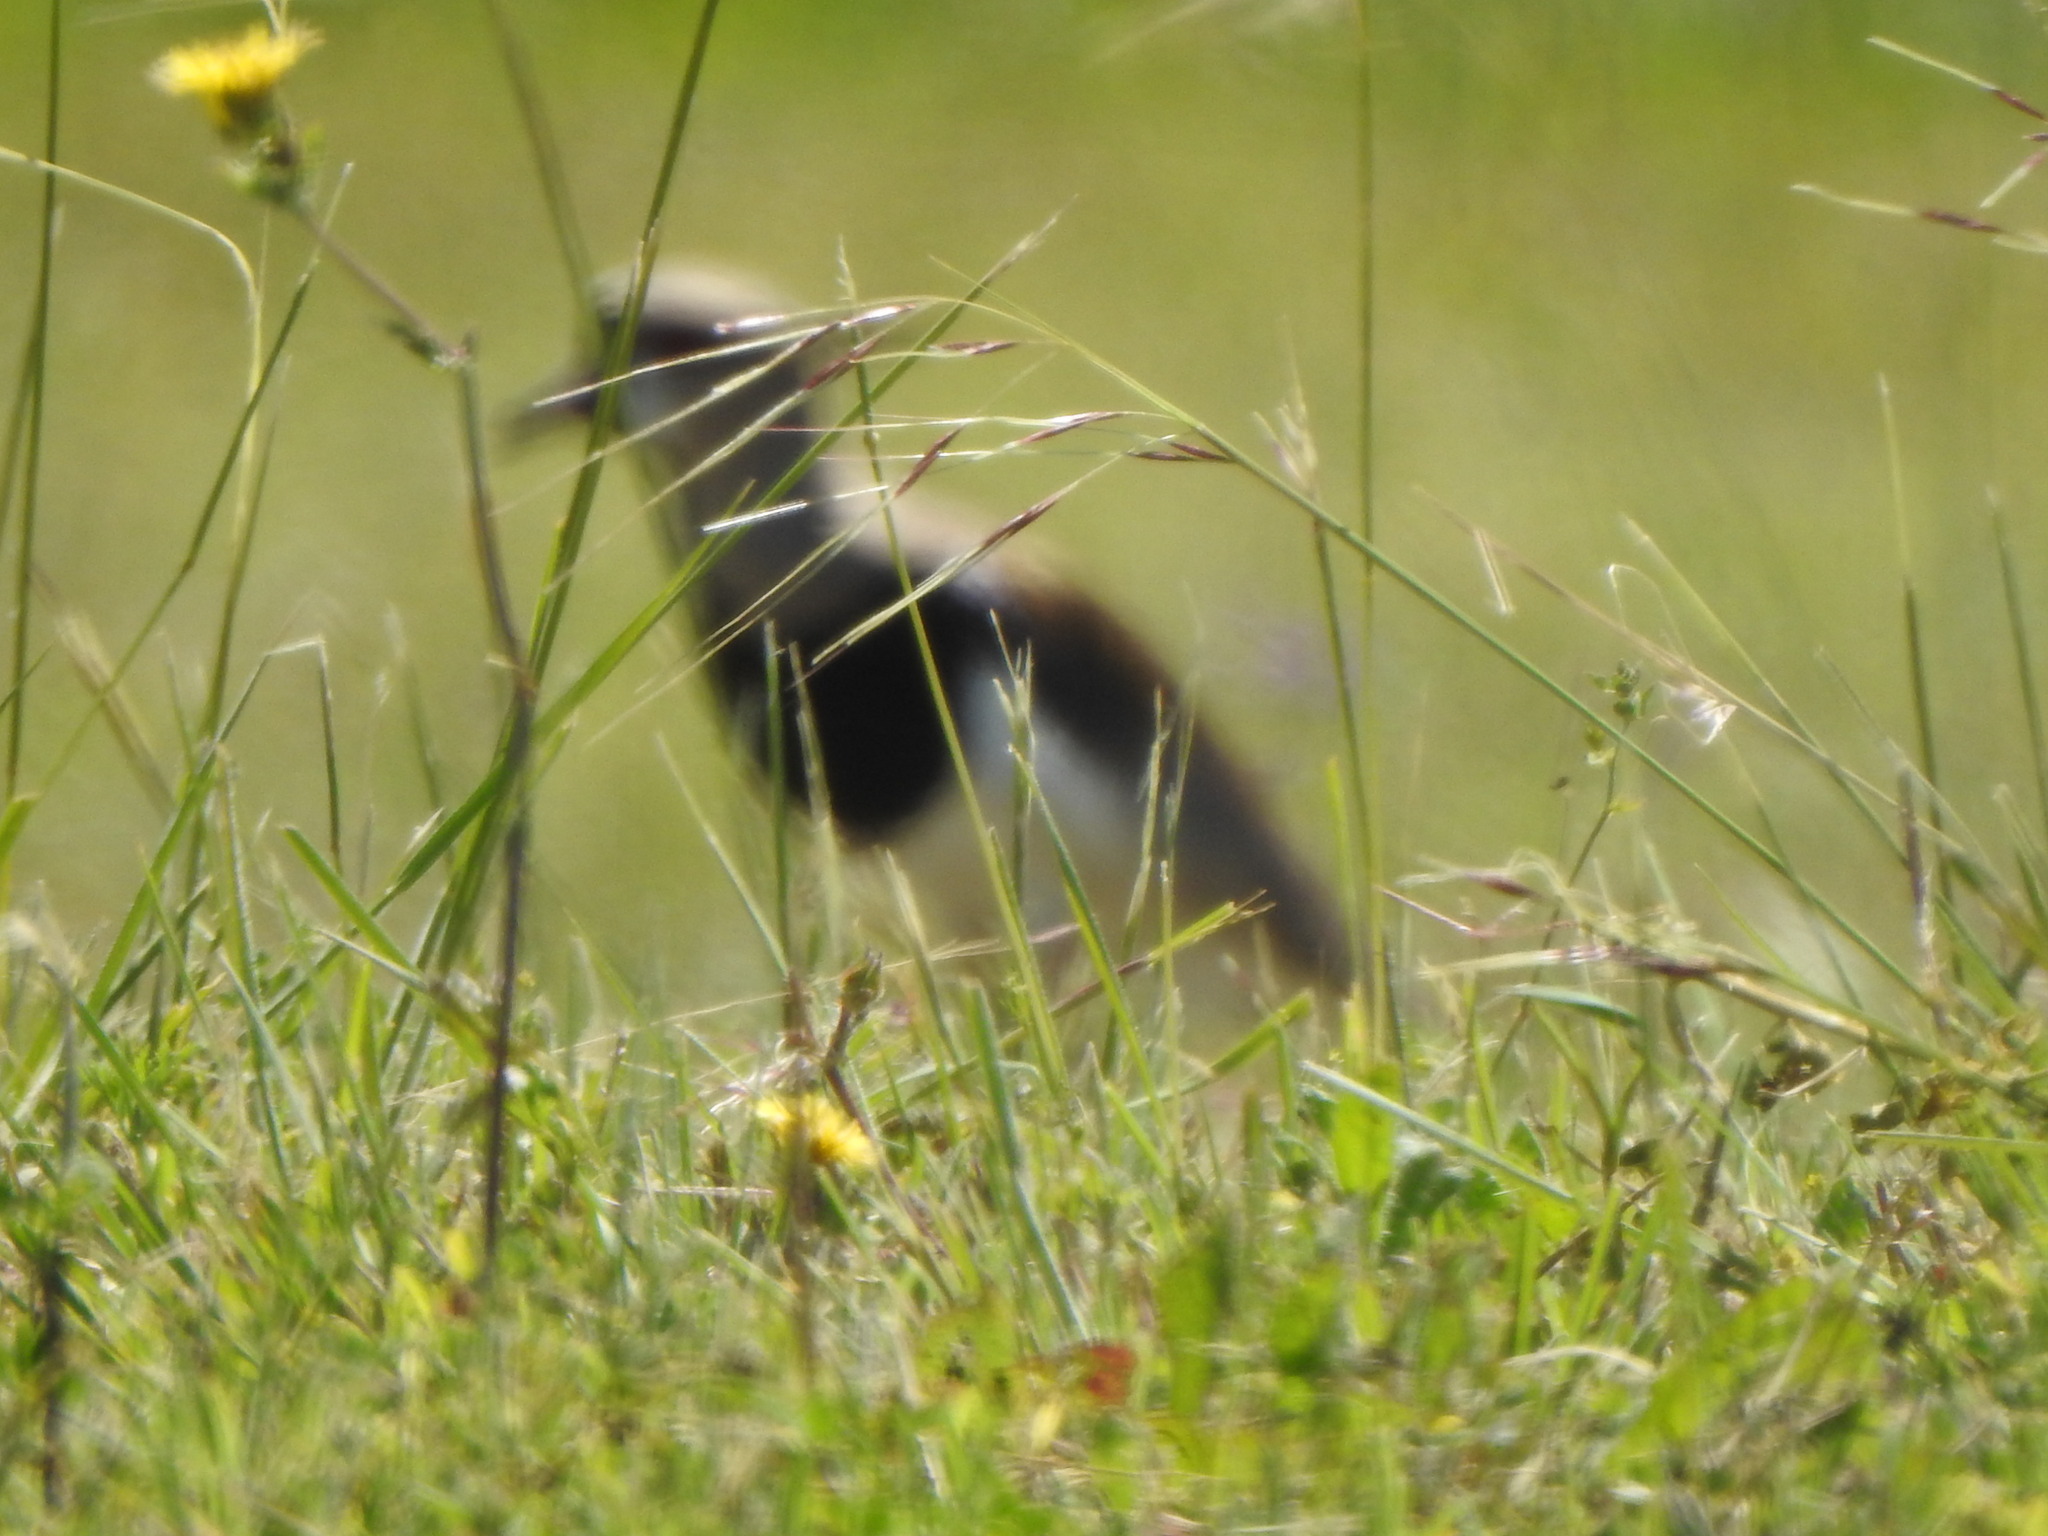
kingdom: Animalia
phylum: Chordata
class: Aves
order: Charadriiformes
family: Charadriidae
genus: Vanellus
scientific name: Vanellus chilensis
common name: Southern lapwing
